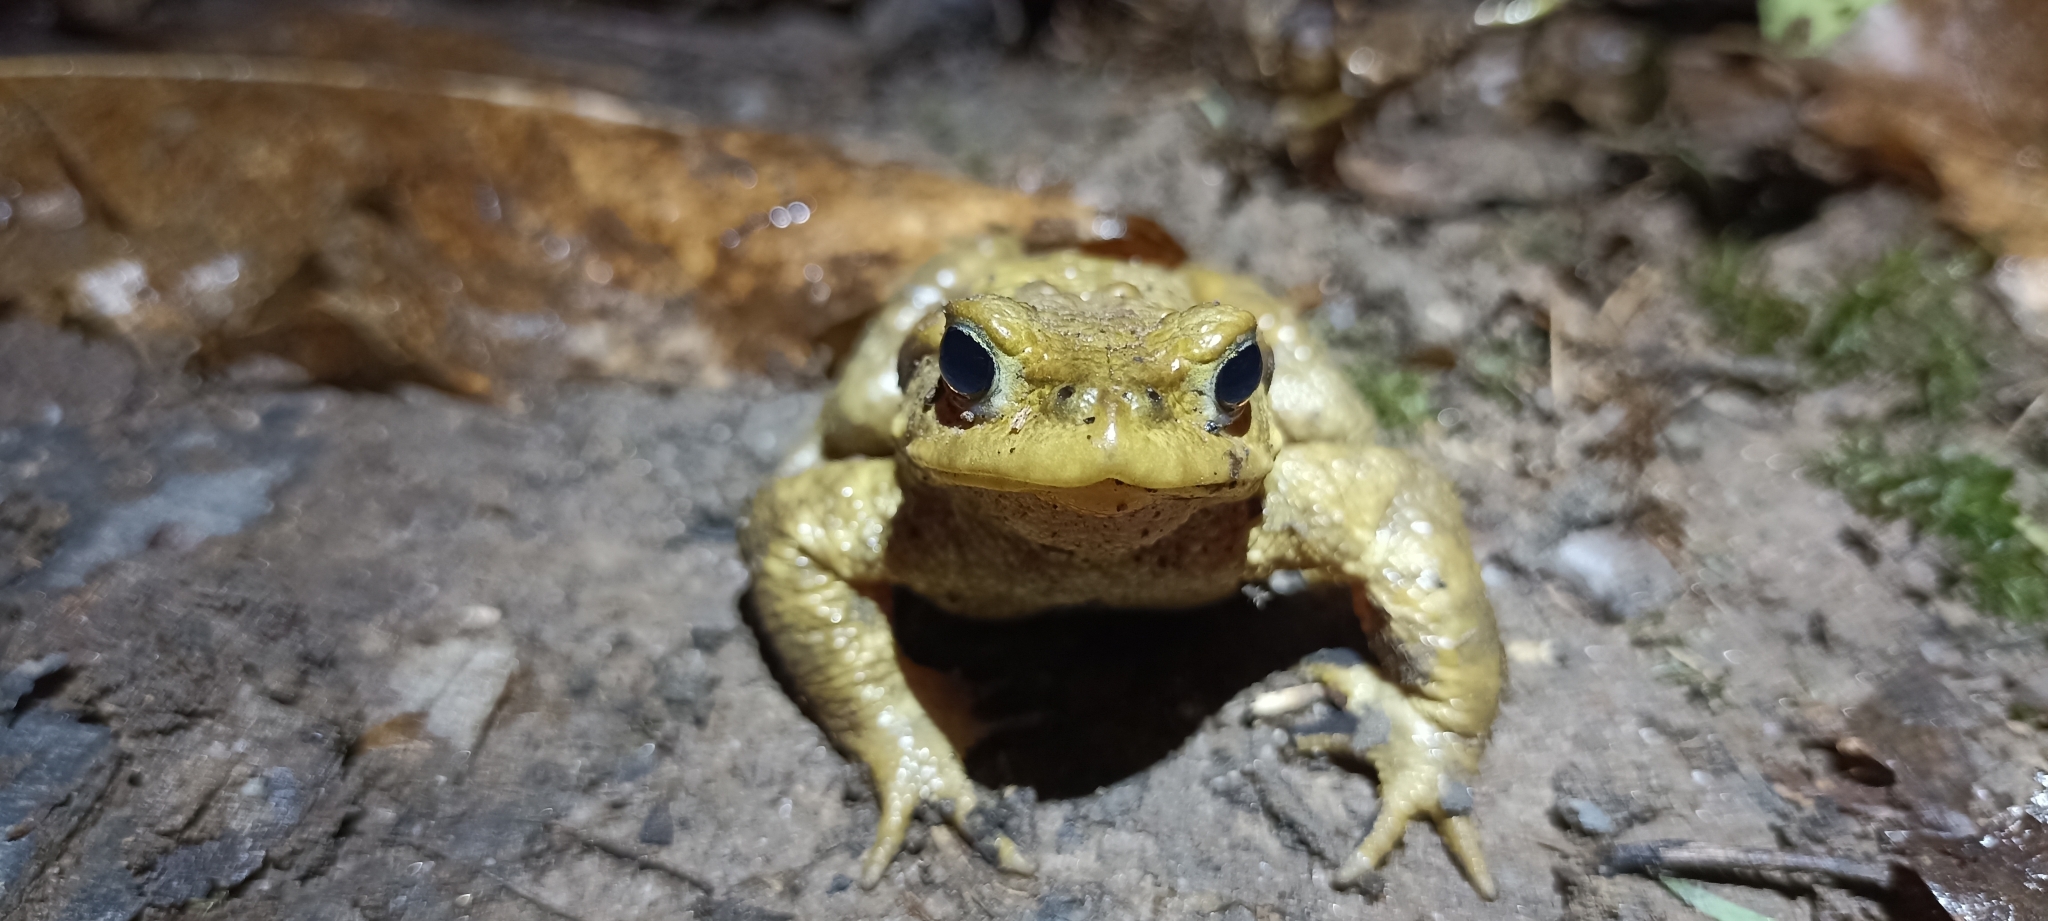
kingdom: Animalia
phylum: Chordata
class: Amphibia
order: Anura
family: Bufonidae
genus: Bufo
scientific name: Bufo spinosus
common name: Western common toad
